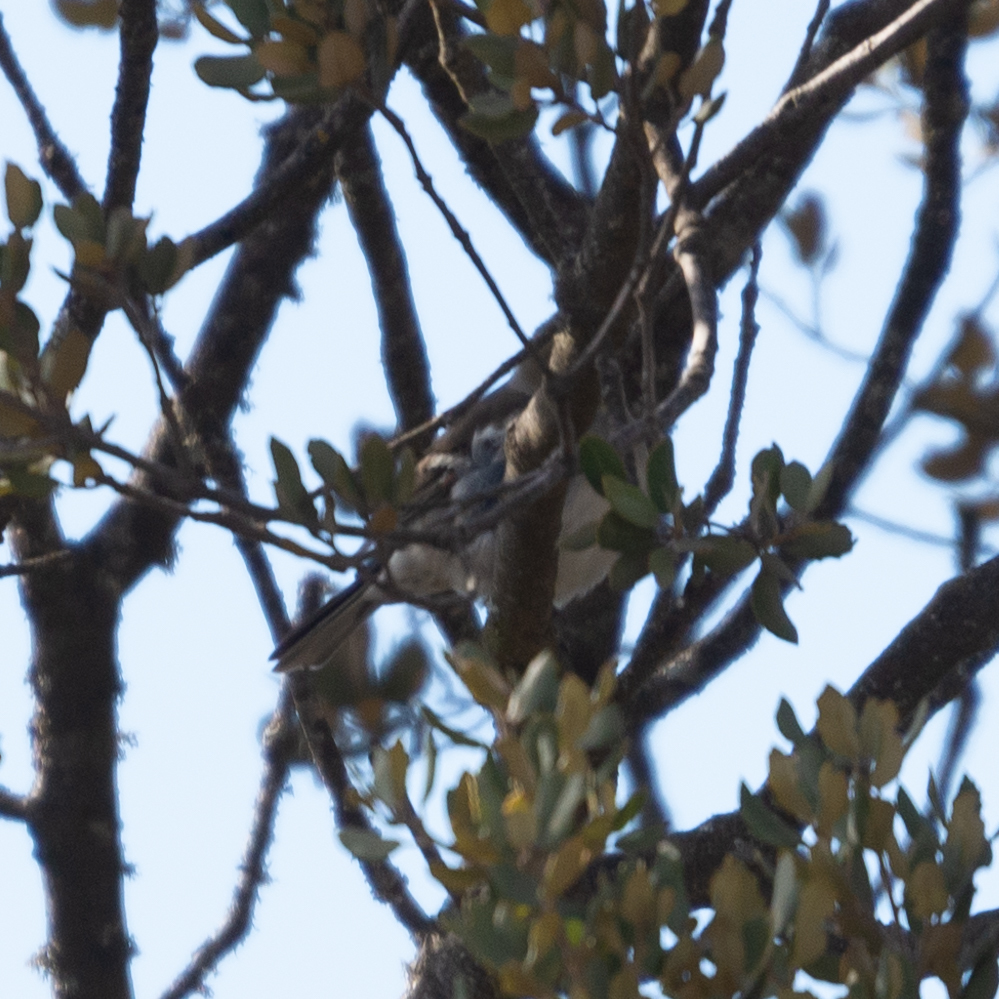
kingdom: Animalia
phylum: Chordata
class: Aves
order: Passeriformes
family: Fringillidae
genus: Fringilla
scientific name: Fringilla coelebs
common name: Common chaffinch
